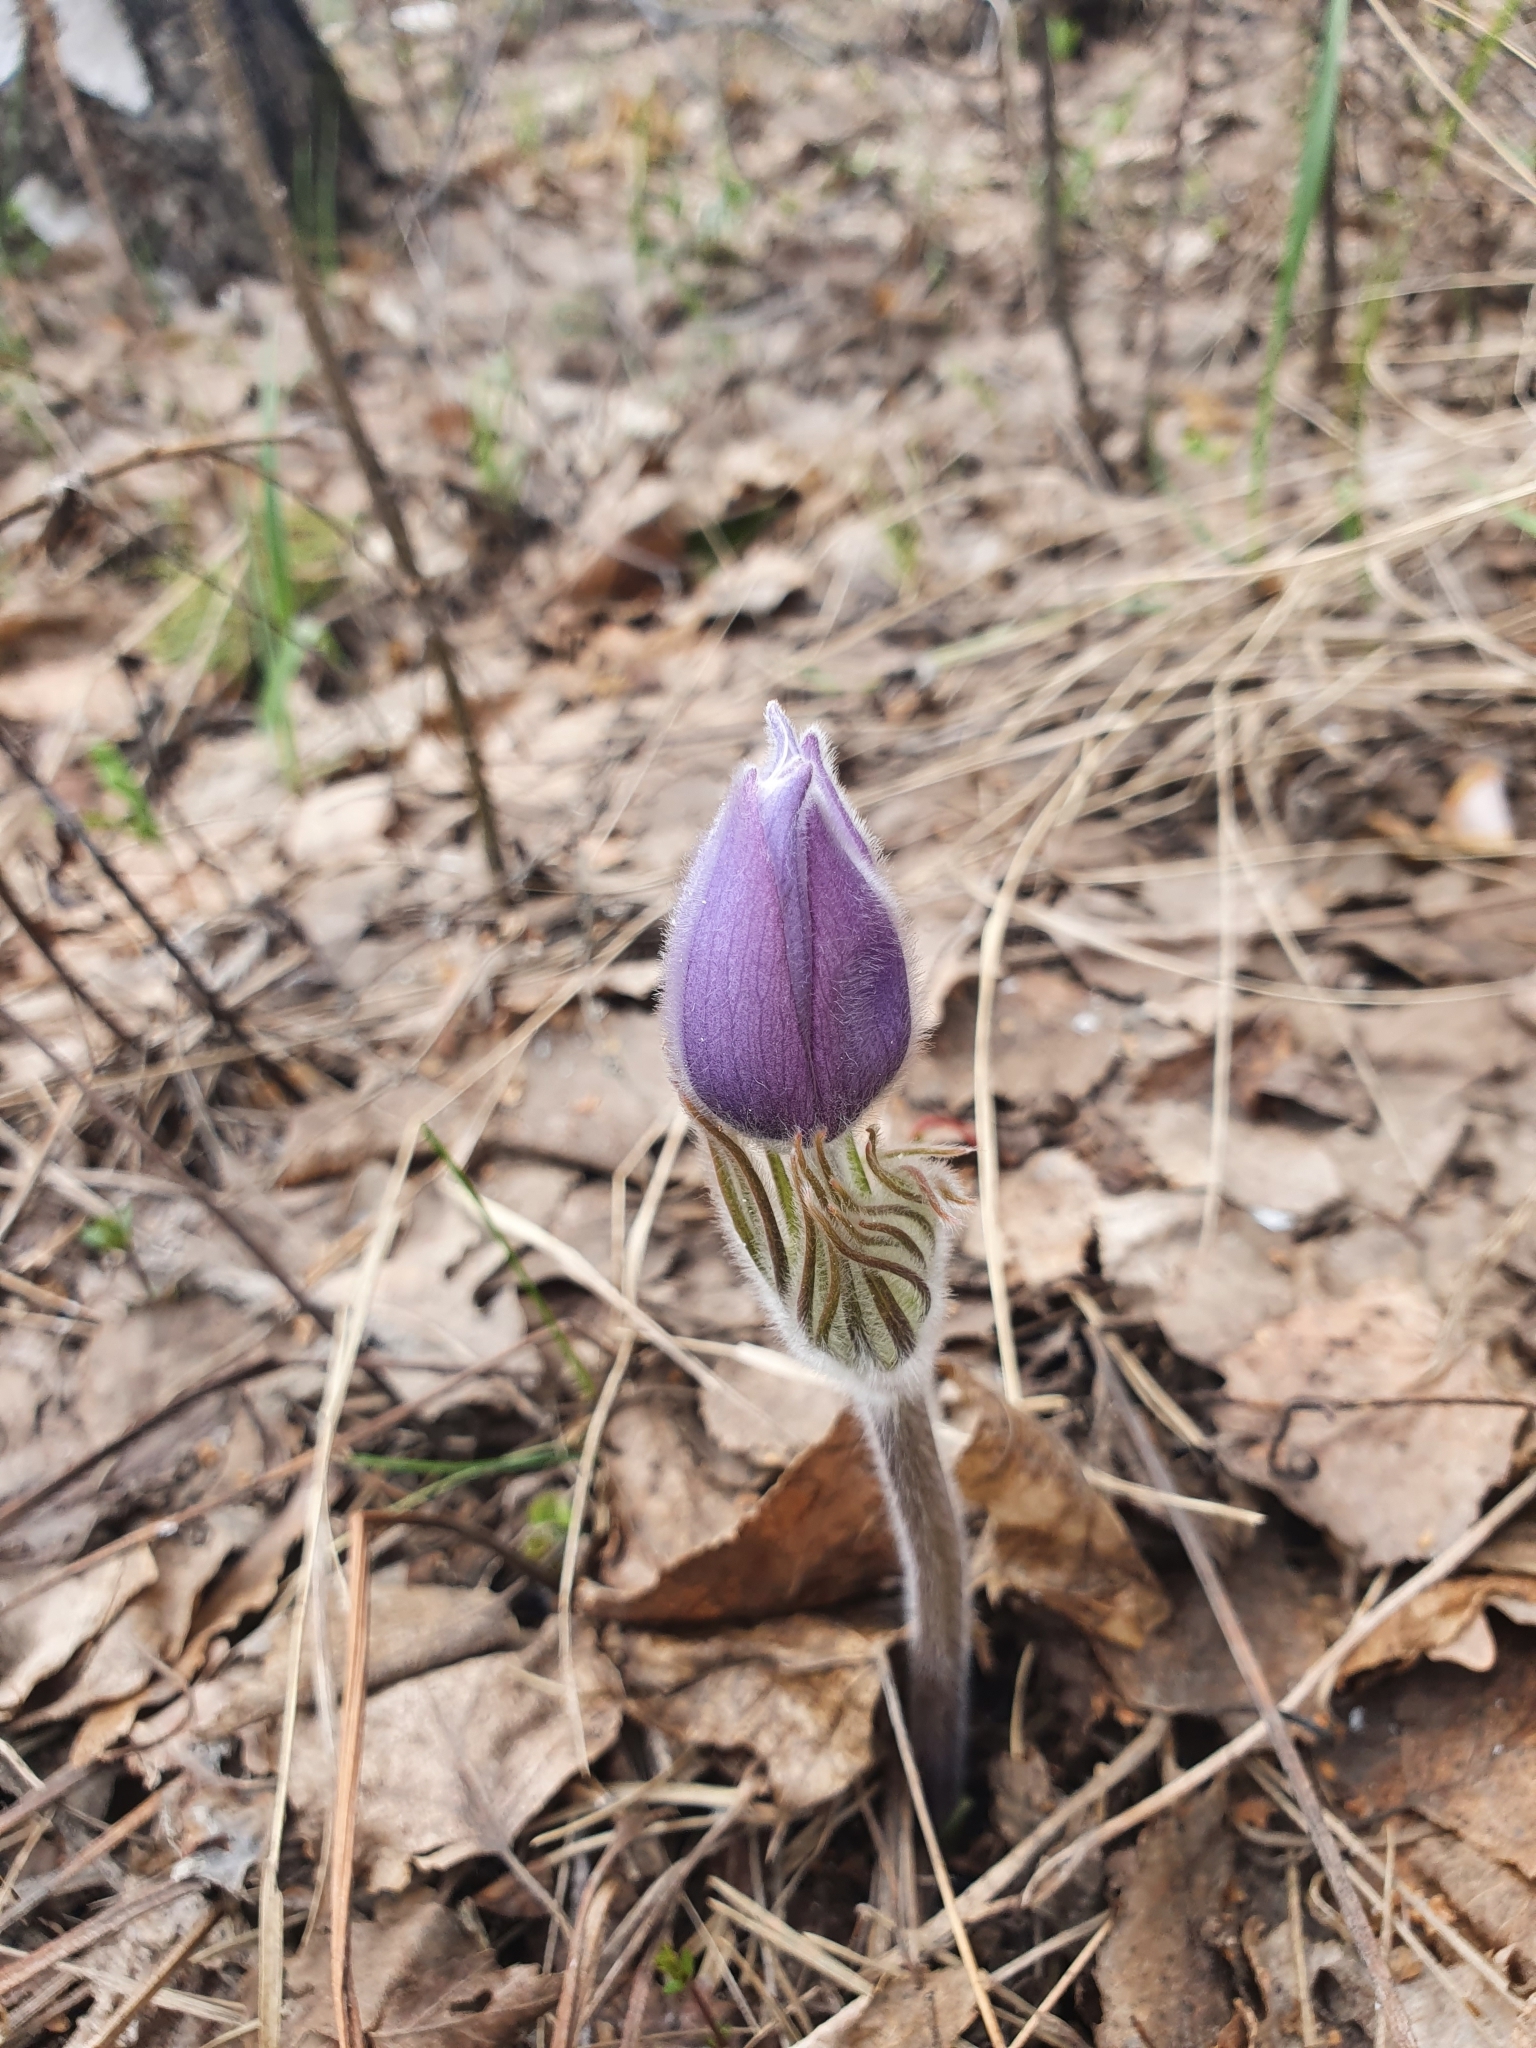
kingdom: Plantae
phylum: Tracheophyta
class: Magnoliopsida
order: Ranunculales
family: Ranunculaceae
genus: Pulsatilla
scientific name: Pulsatilla patens
